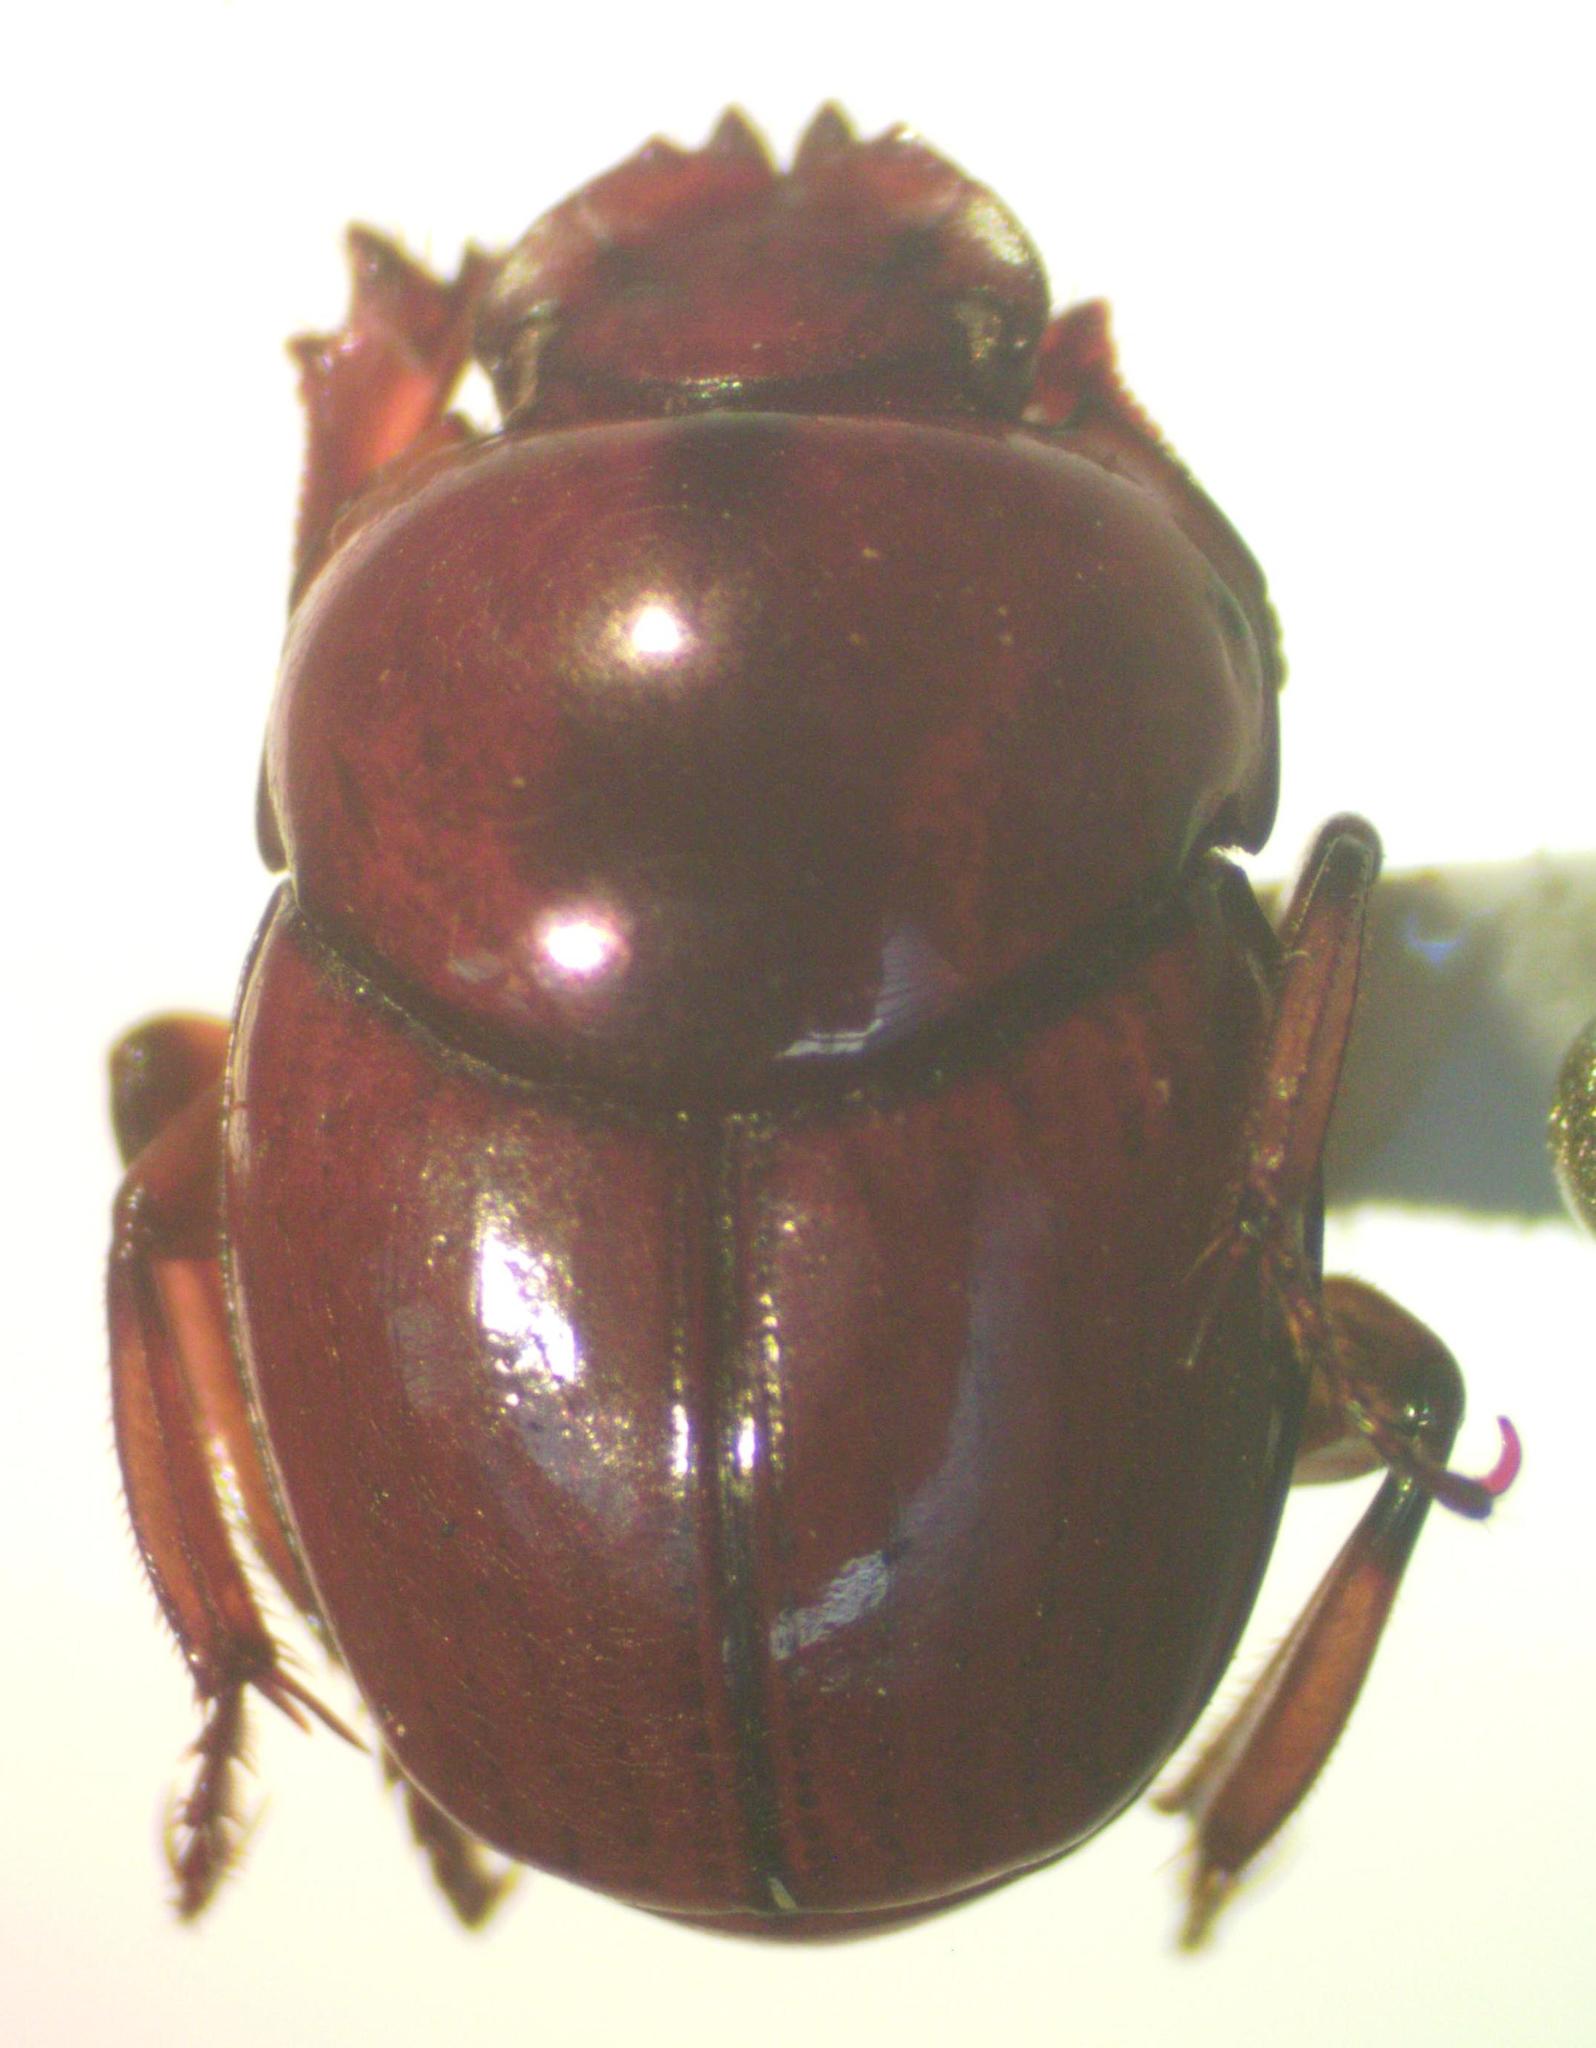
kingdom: Animalia
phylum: Arthropoda
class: Insecta
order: Coleoptera
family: Scarabaeidae
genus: Canthon
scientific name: Canthon angustatus
